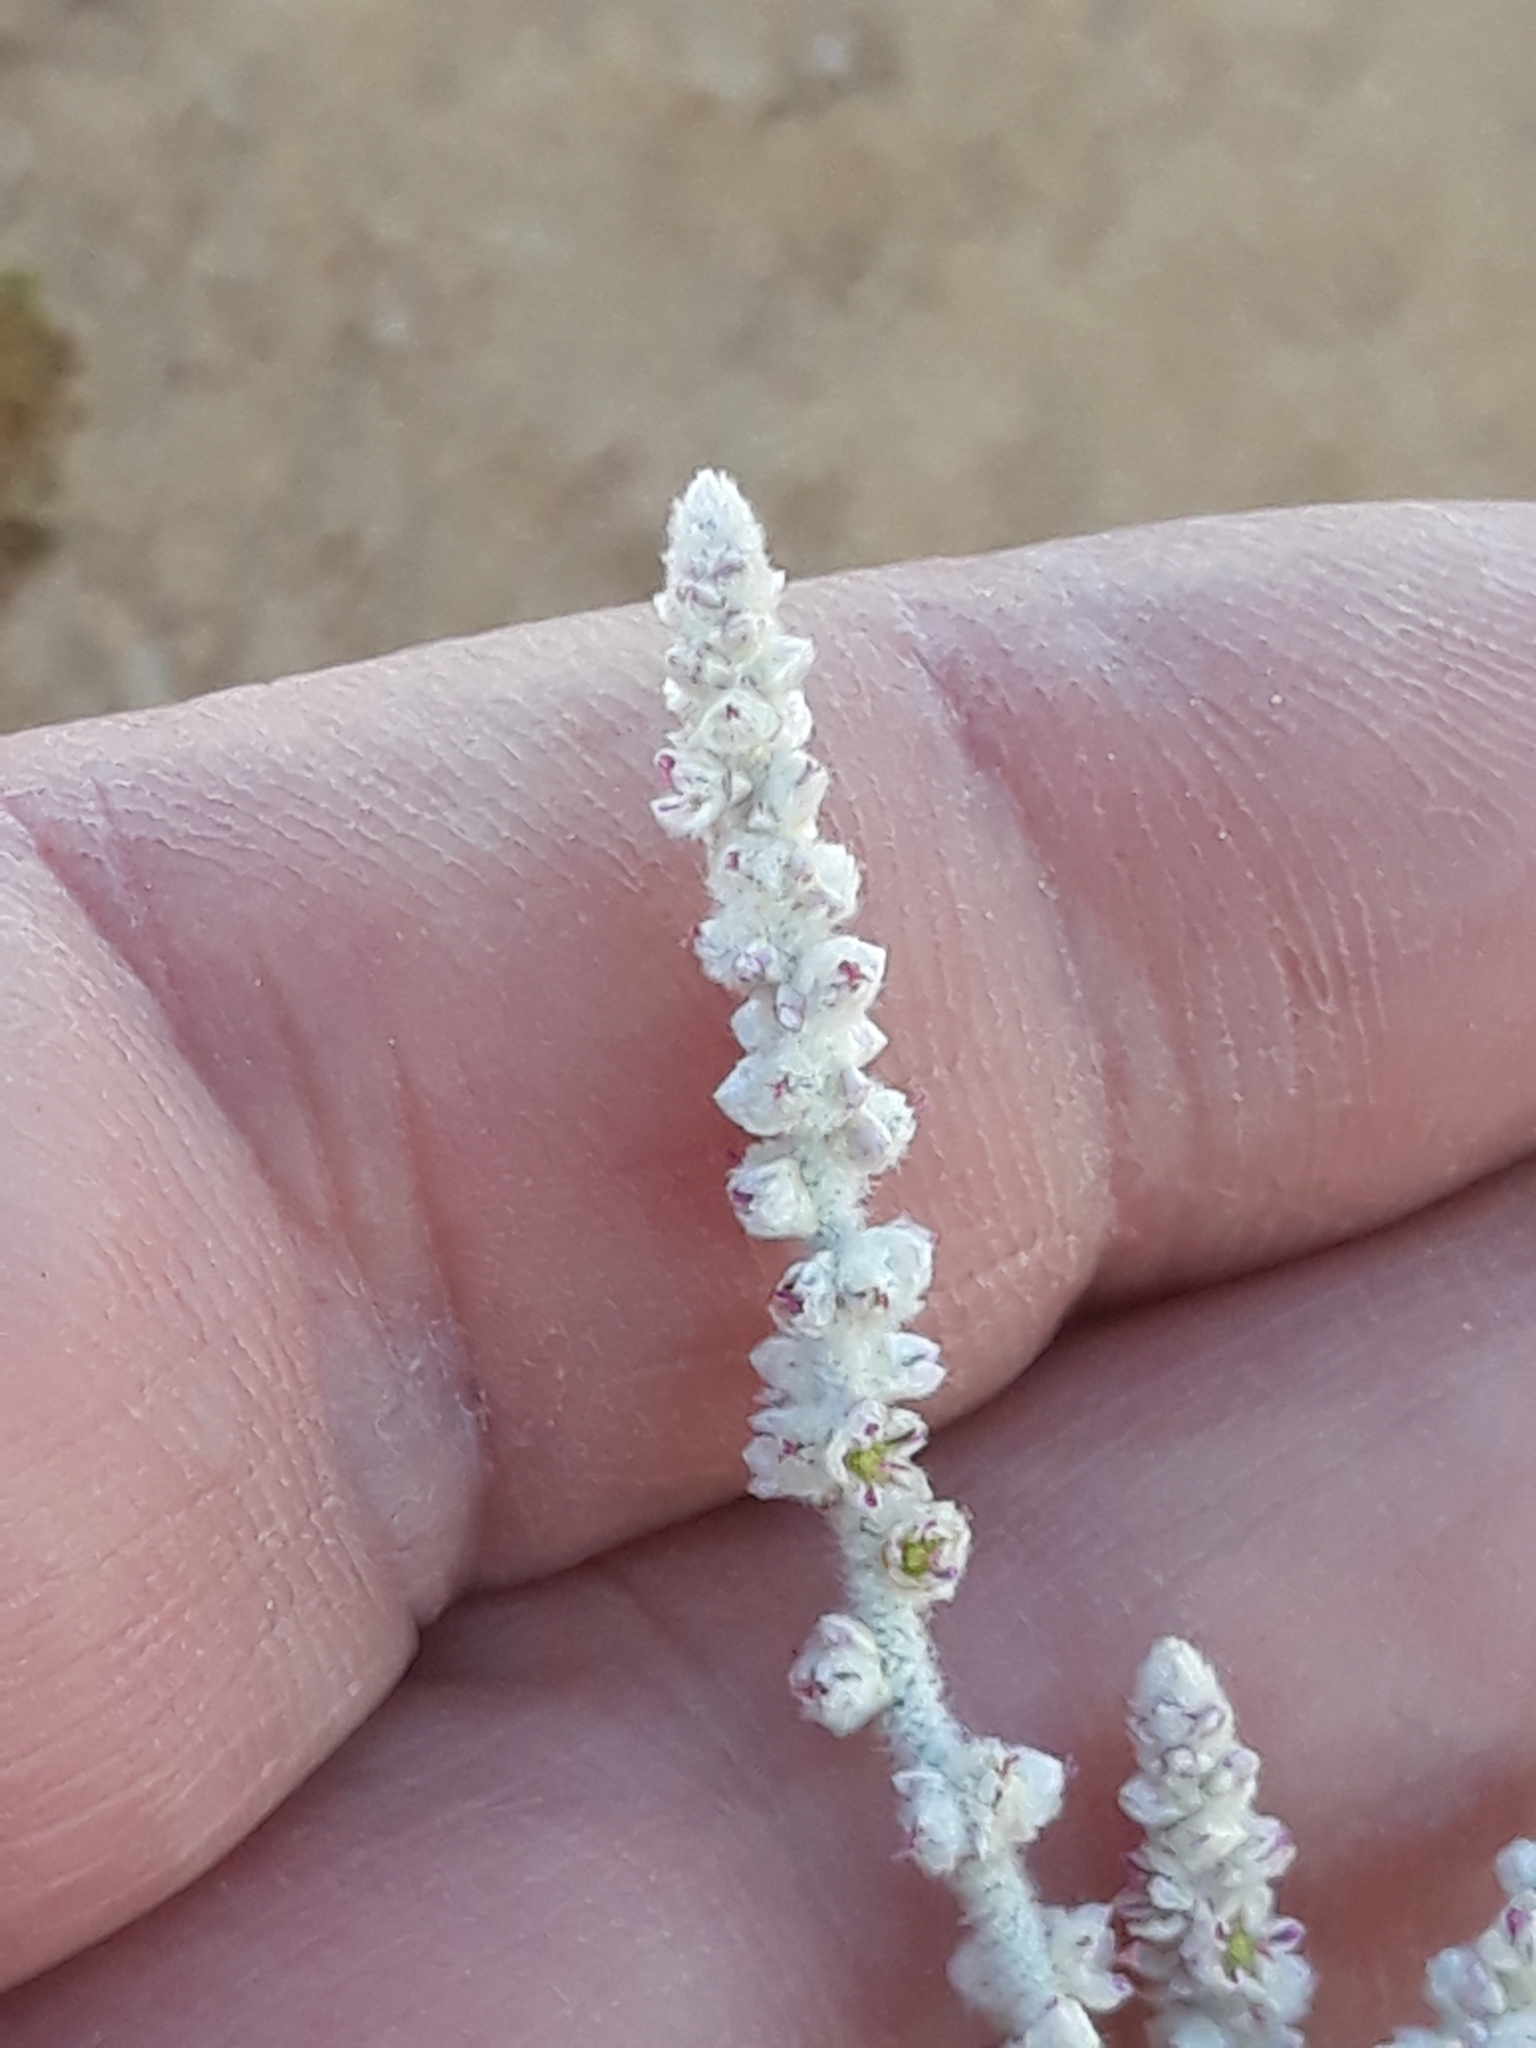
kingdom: Plantae
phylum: Tracheophyta
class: Magnoliopsida
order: Caryophyllales
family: Amaranthaceae
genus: Aerva
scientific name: Aerva javanica
